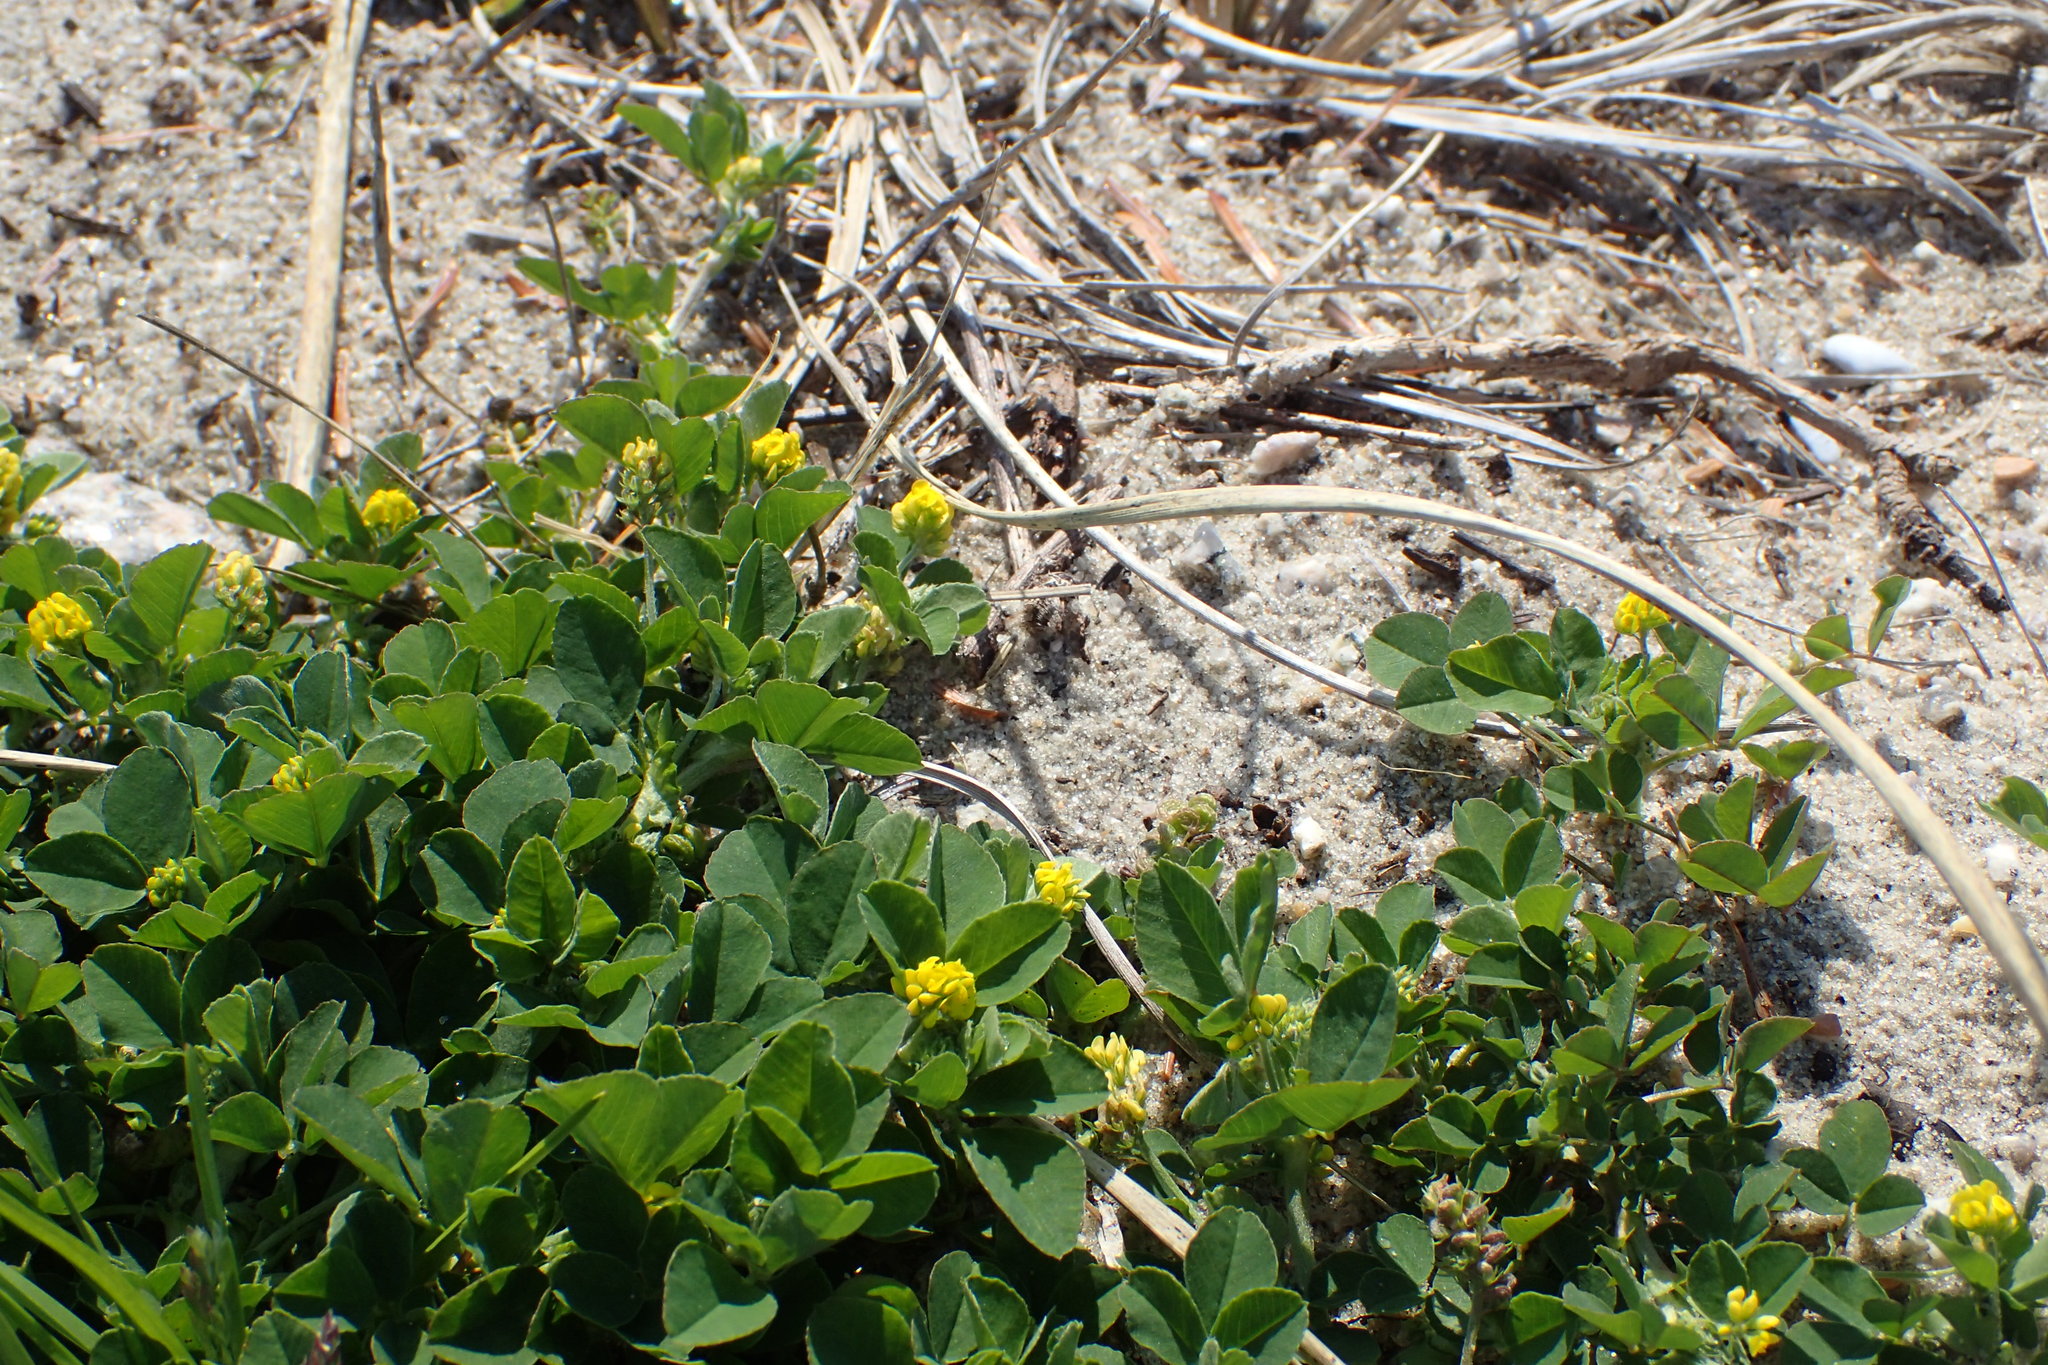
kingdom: Plantae
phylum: Tracheophyta
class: Magnoliopsida
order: Fabales
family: Fabaceae
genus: Medicago
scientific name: Medicago lupulina
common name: Black medick
